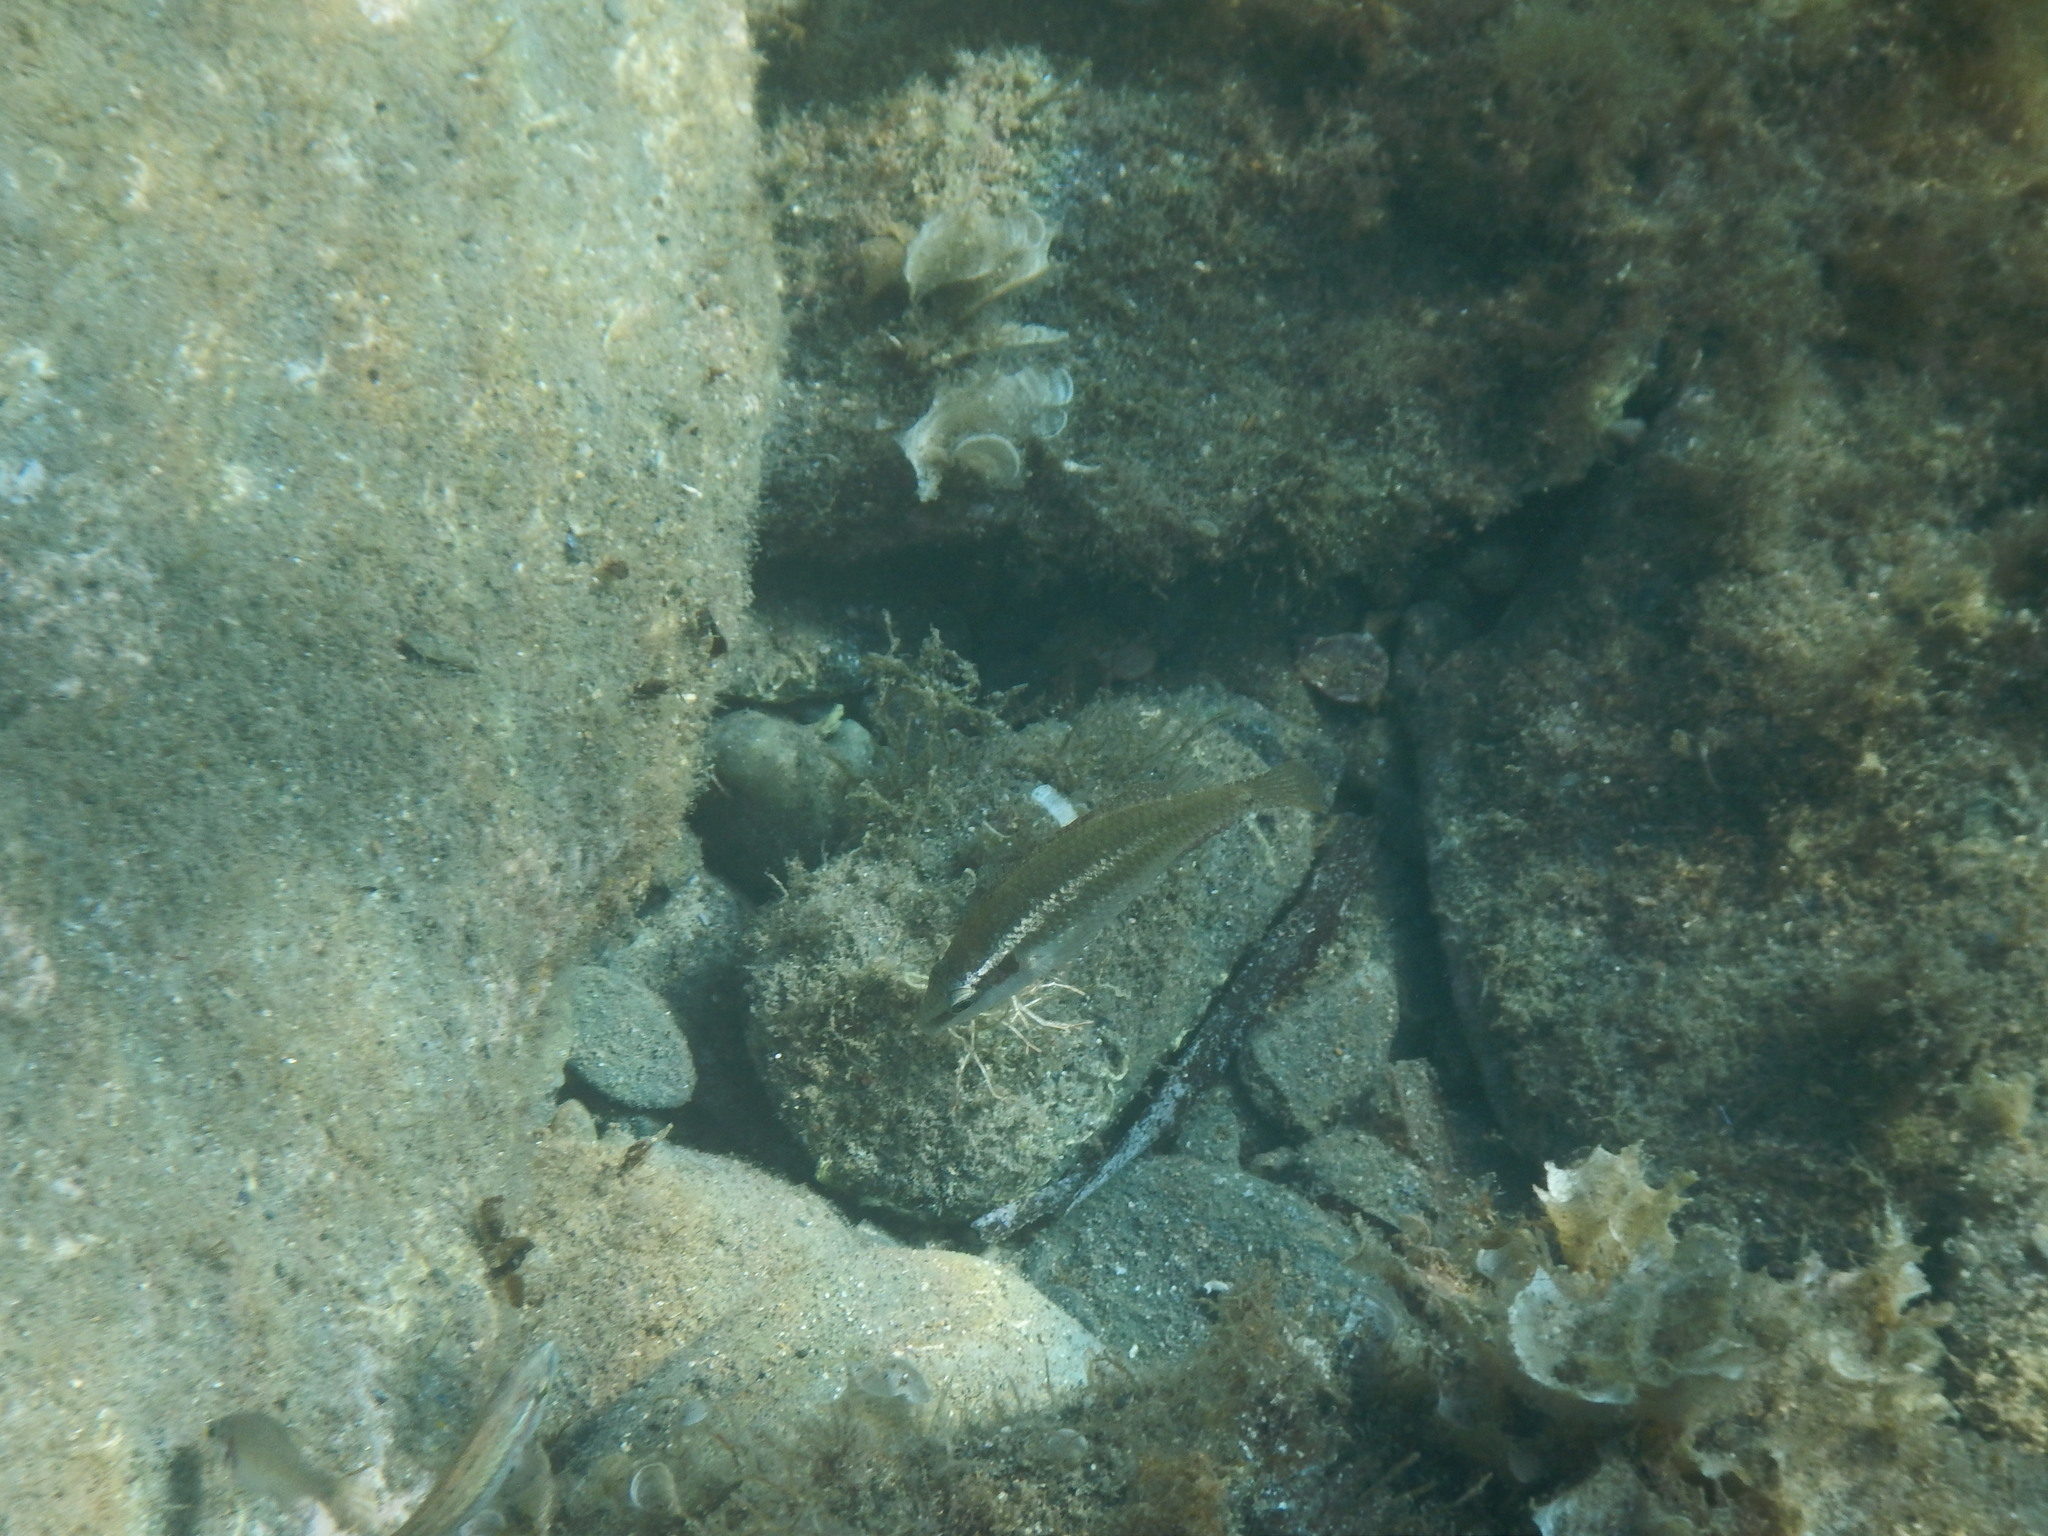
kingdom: Animalia
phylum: Chordata
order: Perciformes
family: Labridae
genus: Symphodus
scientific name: Symphodus ocellatus
